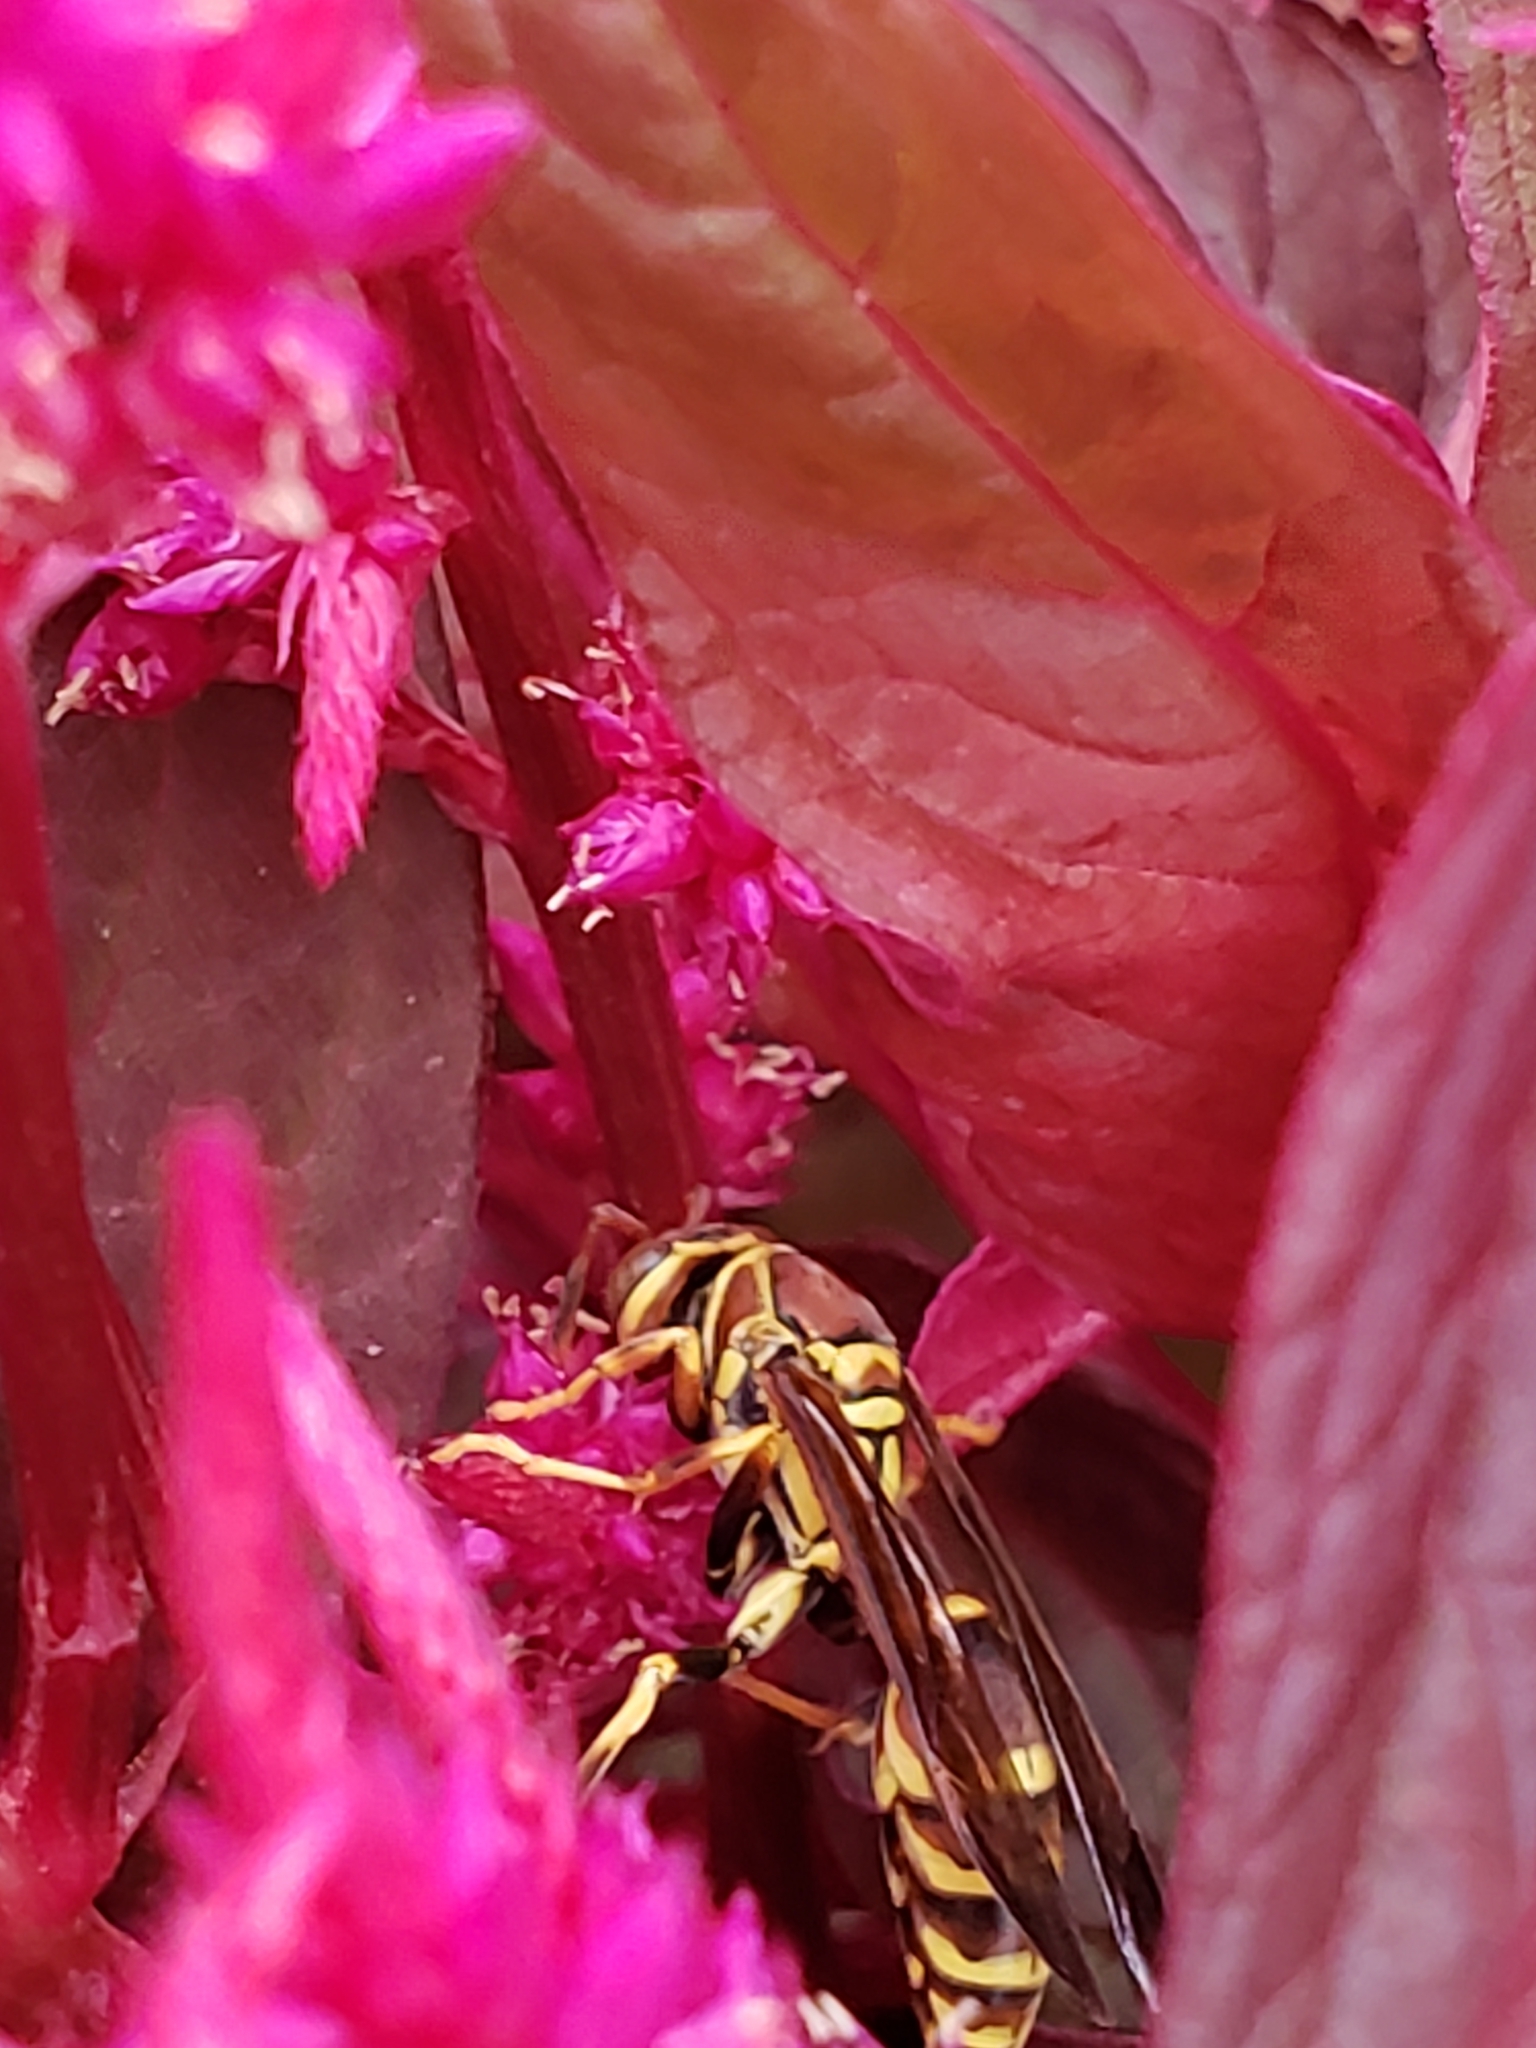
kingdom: Animalia
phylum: Arthropoda
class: Insecta
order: Hymenoptera
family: Eumenidae
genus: Polistes
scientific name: Polistes exclamans
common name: Paper wasp
